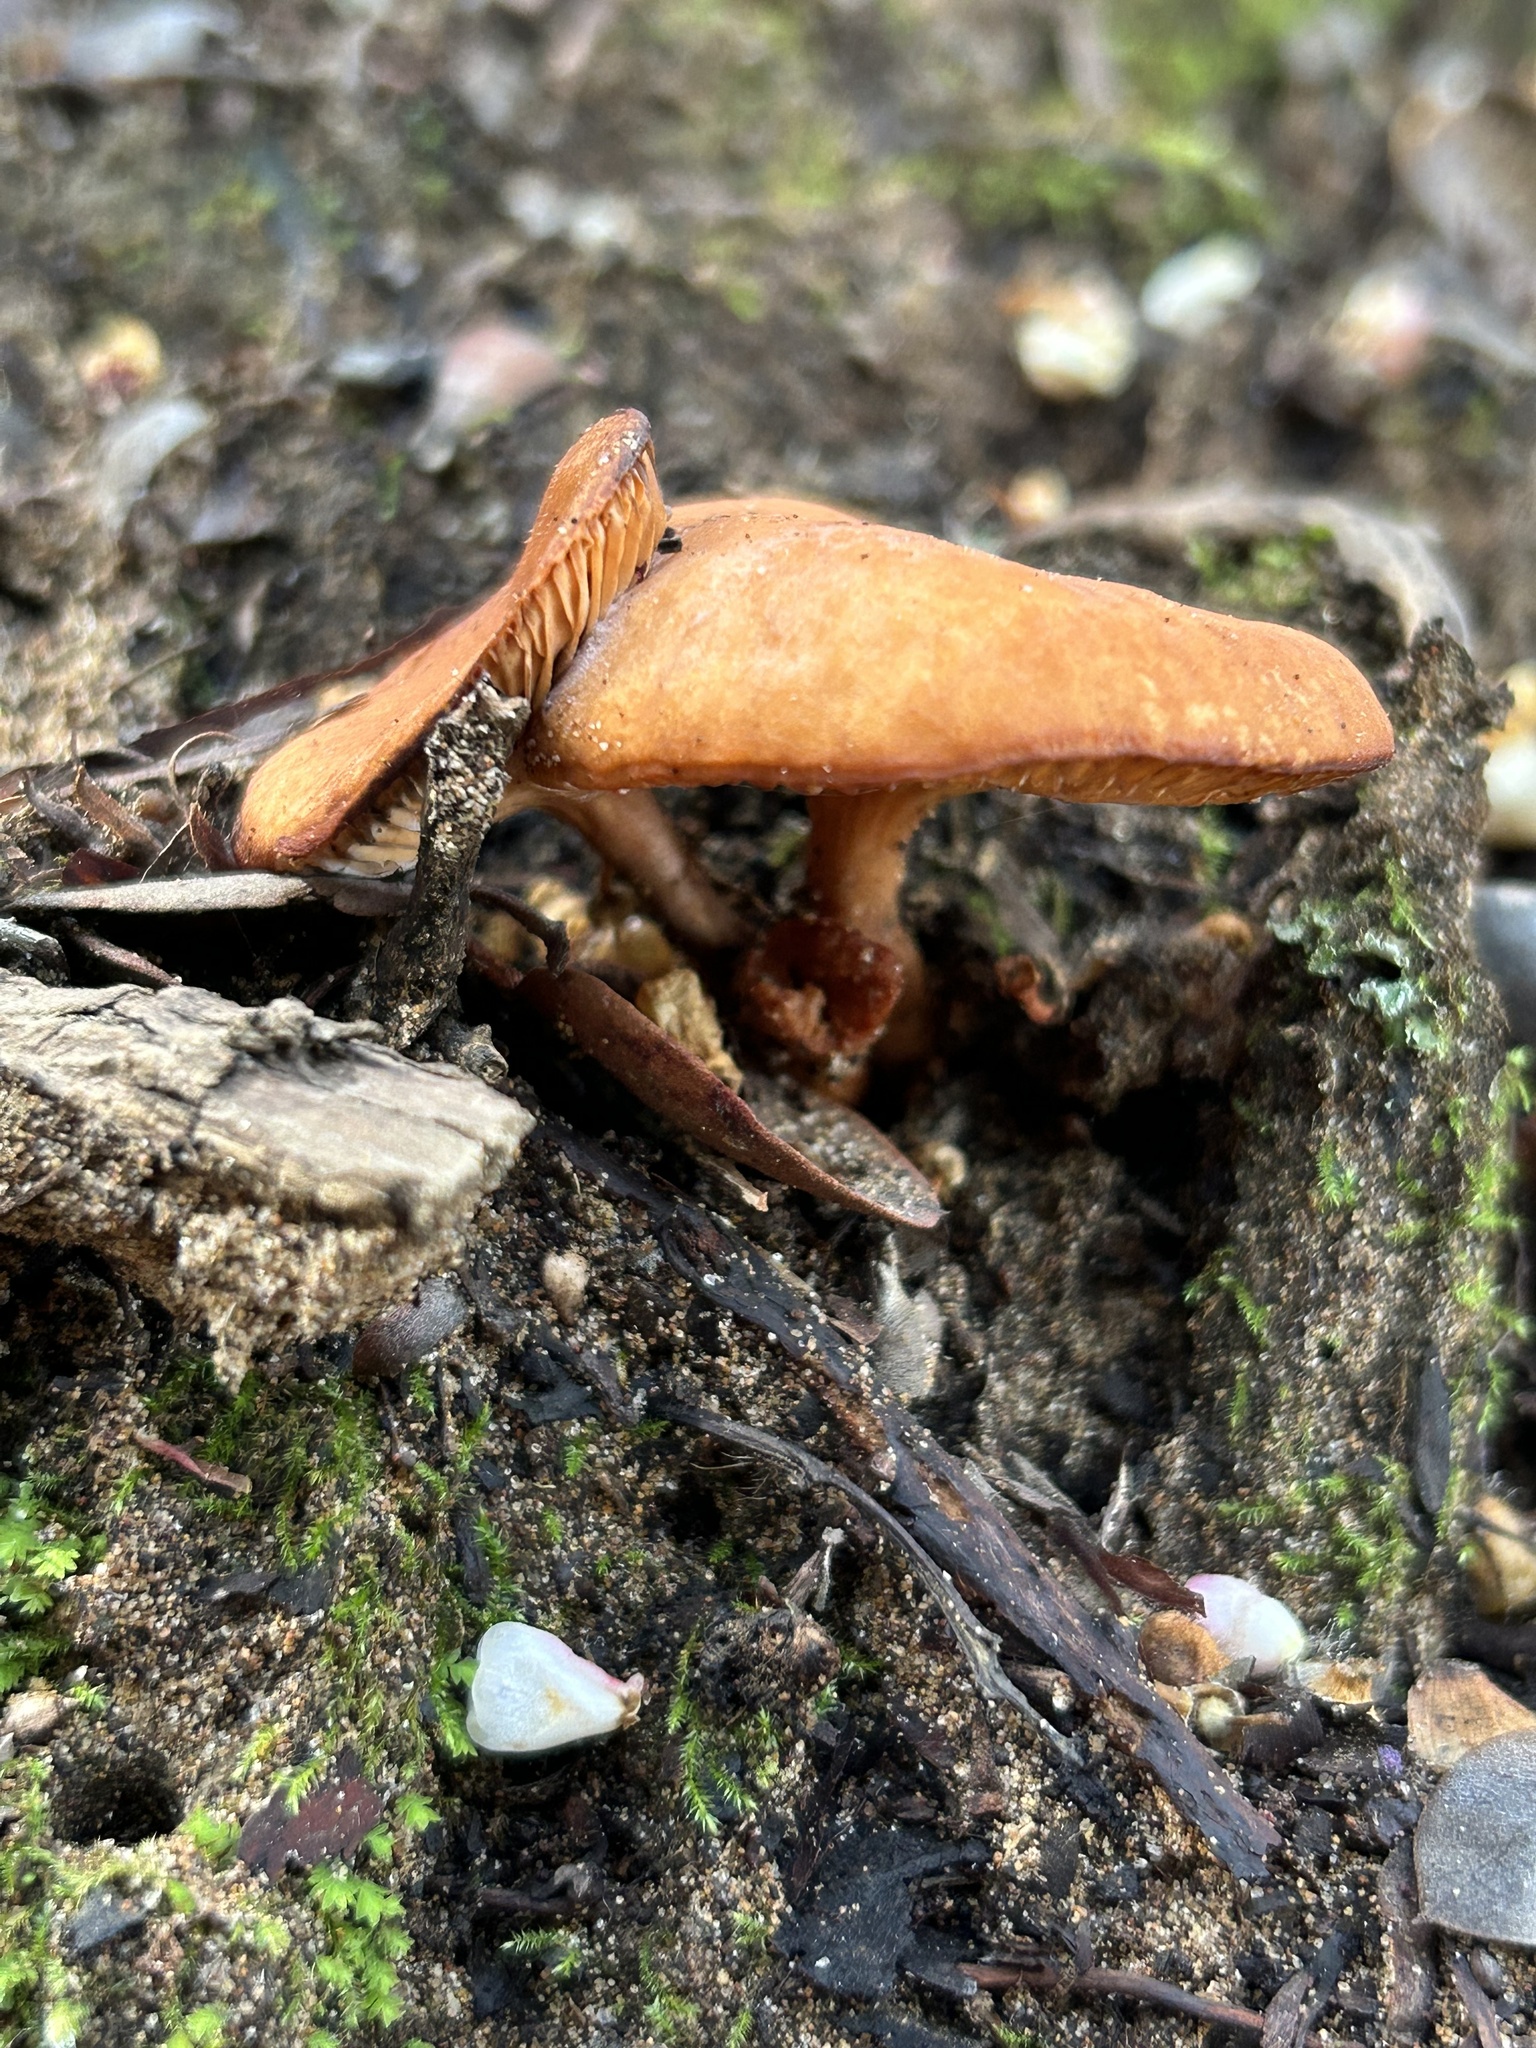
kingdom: Fungi
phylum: Basidiomycota
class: Agaricomycetes
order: Russulales
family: Russulaceae
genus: Lactarius
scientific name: Lactarius rubidus
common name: Candy cap
